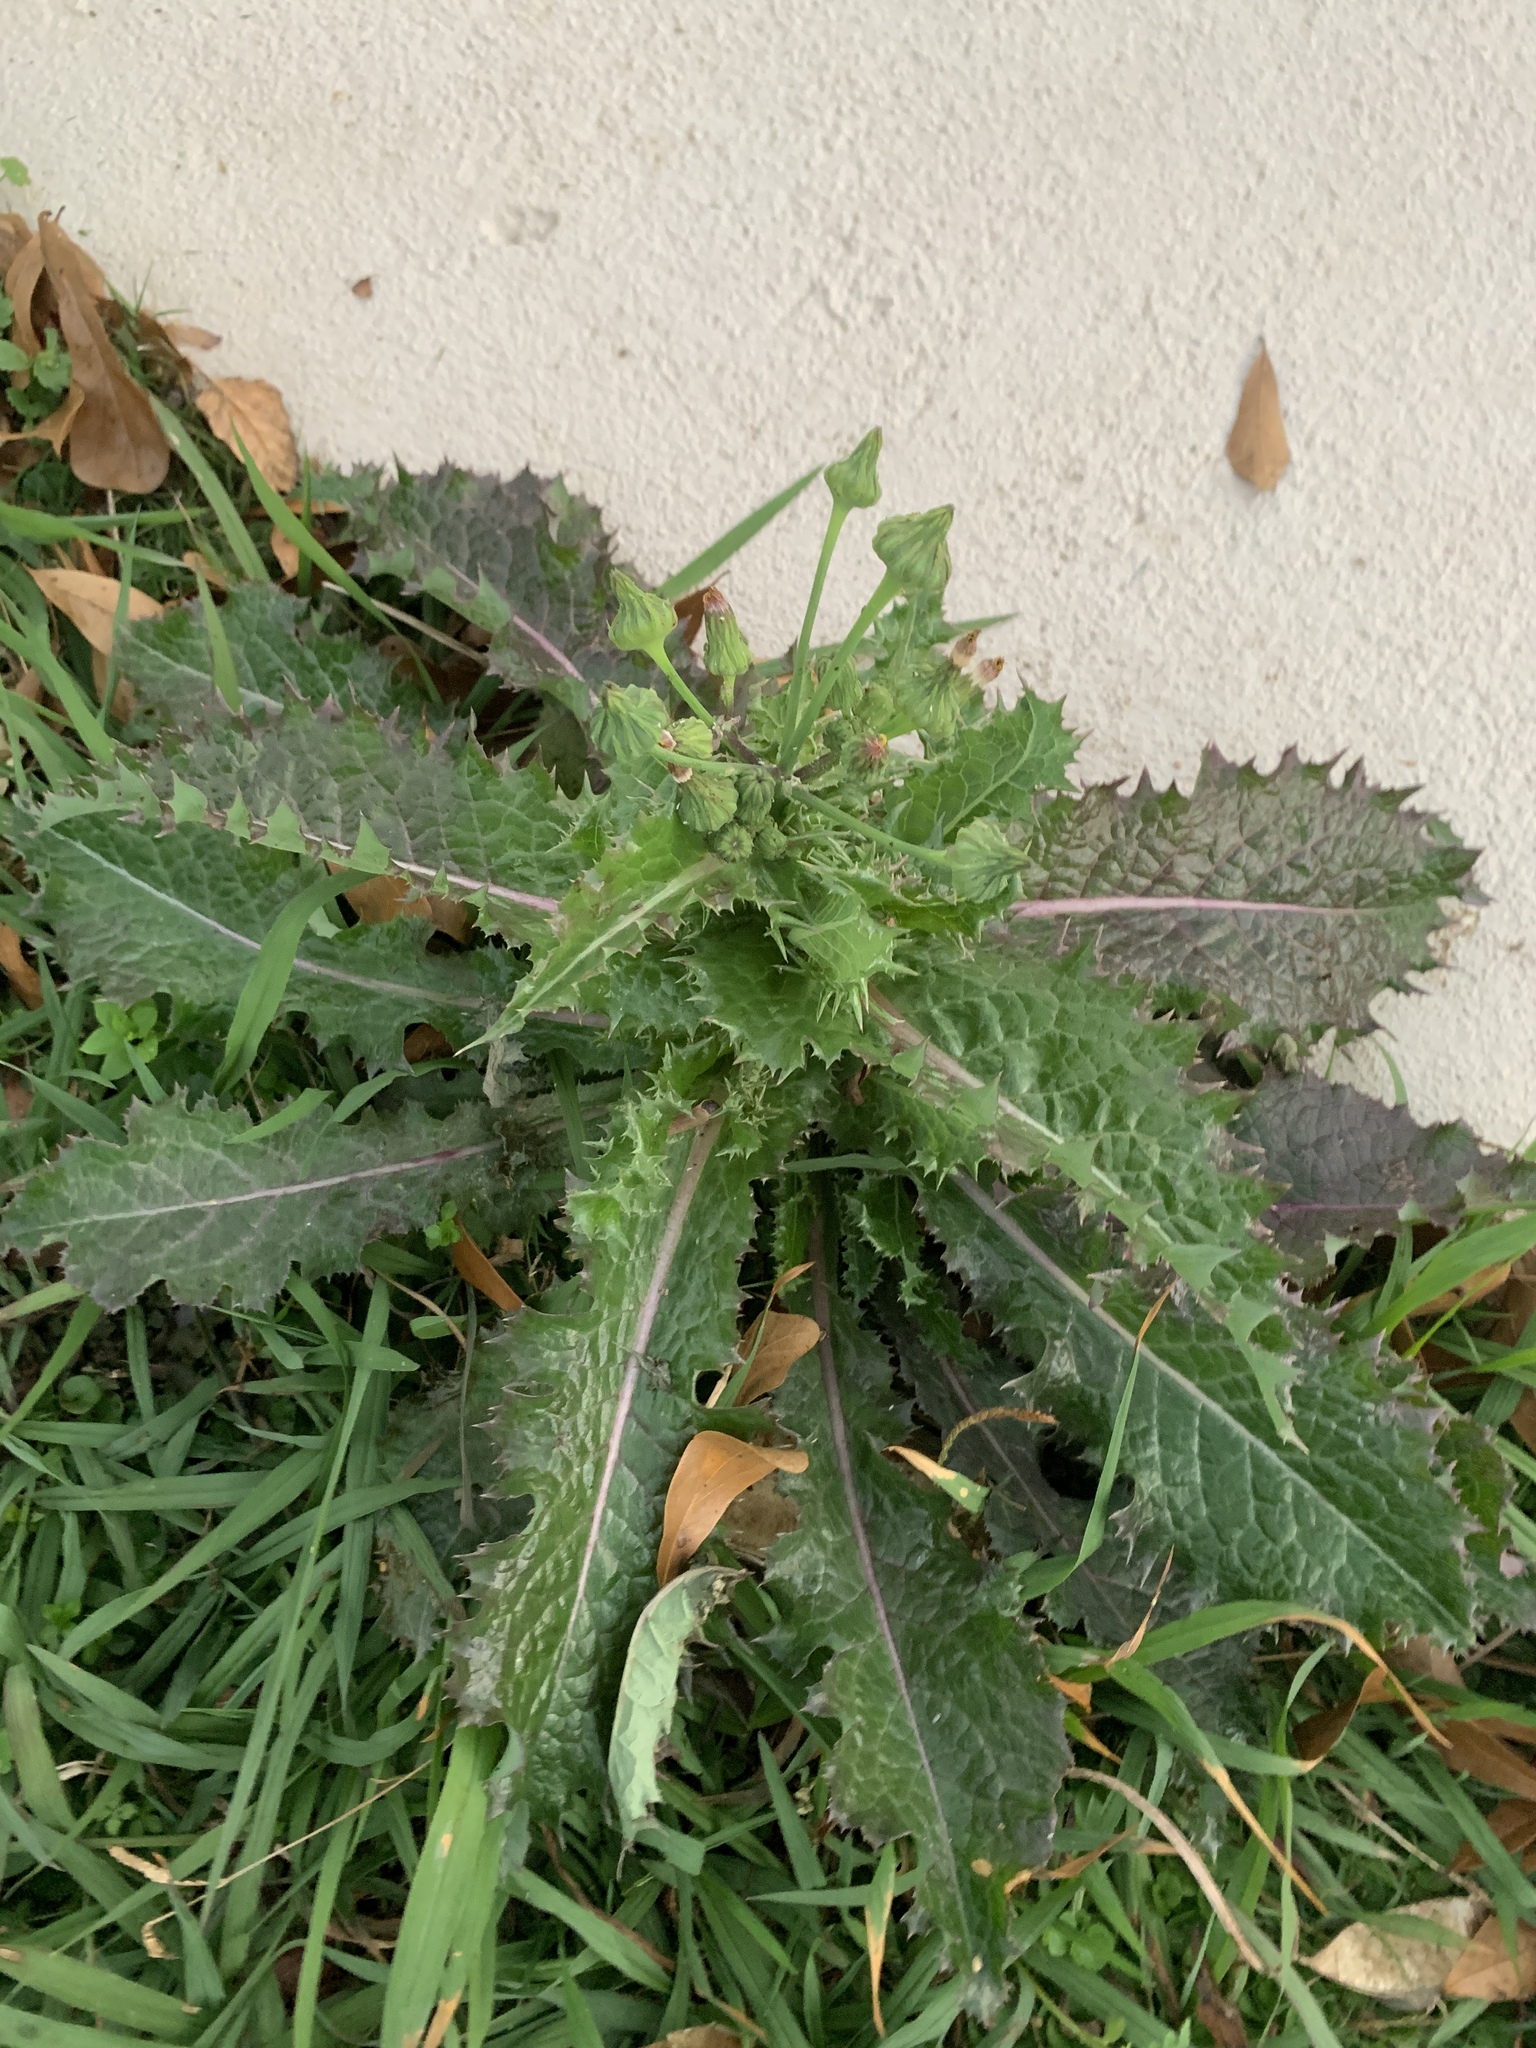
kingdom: Plantae
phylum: Tracheophyta
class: Magnoliopsida
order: Asterales
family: Asteraceae
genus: Sonchus
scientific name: Sonchus asper
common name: Prickly sow-thistle
